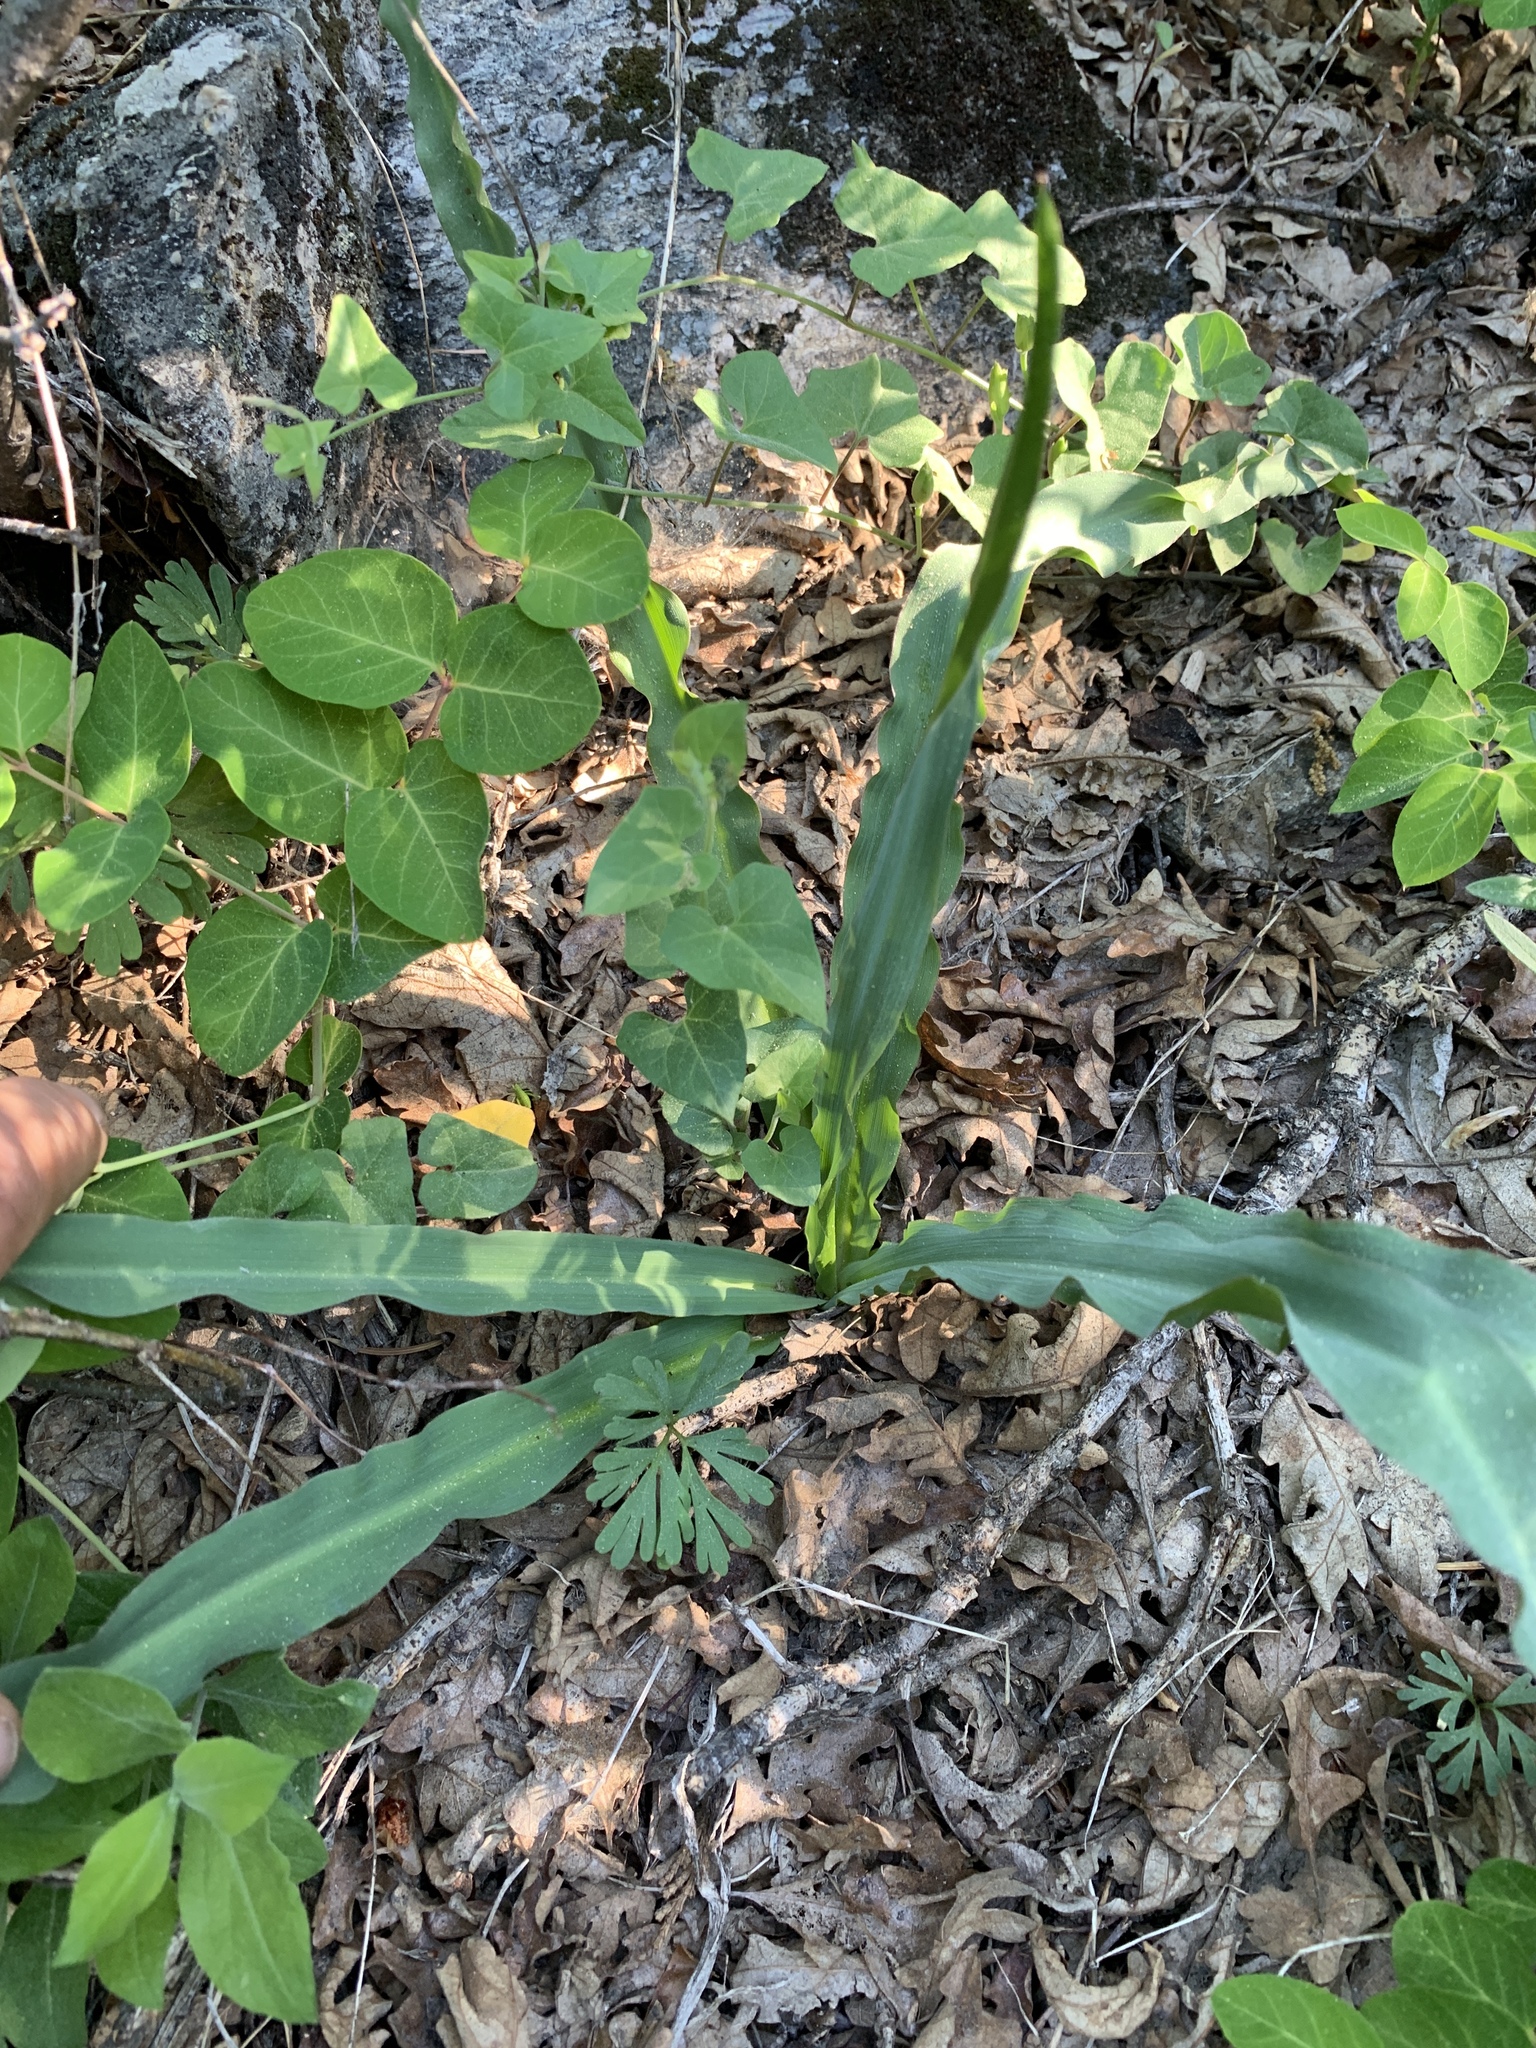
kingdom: Plantae
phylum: Tracheophyta
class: Liliopsida
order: Asparagales
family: Asparagaceae
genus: Chlorogalum
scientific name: Chlorogalum pomeridianum
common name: Amole
